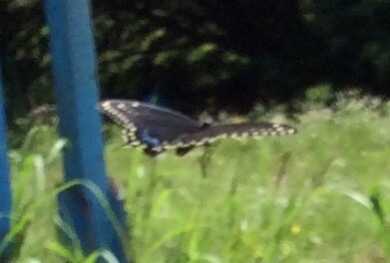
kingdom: Animalia
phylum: Arthropoda
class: Insecta
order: Lepidoptera
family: Papilionidae
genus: Papilio
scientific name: Papilio polyxenes
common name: Black swallowtail
